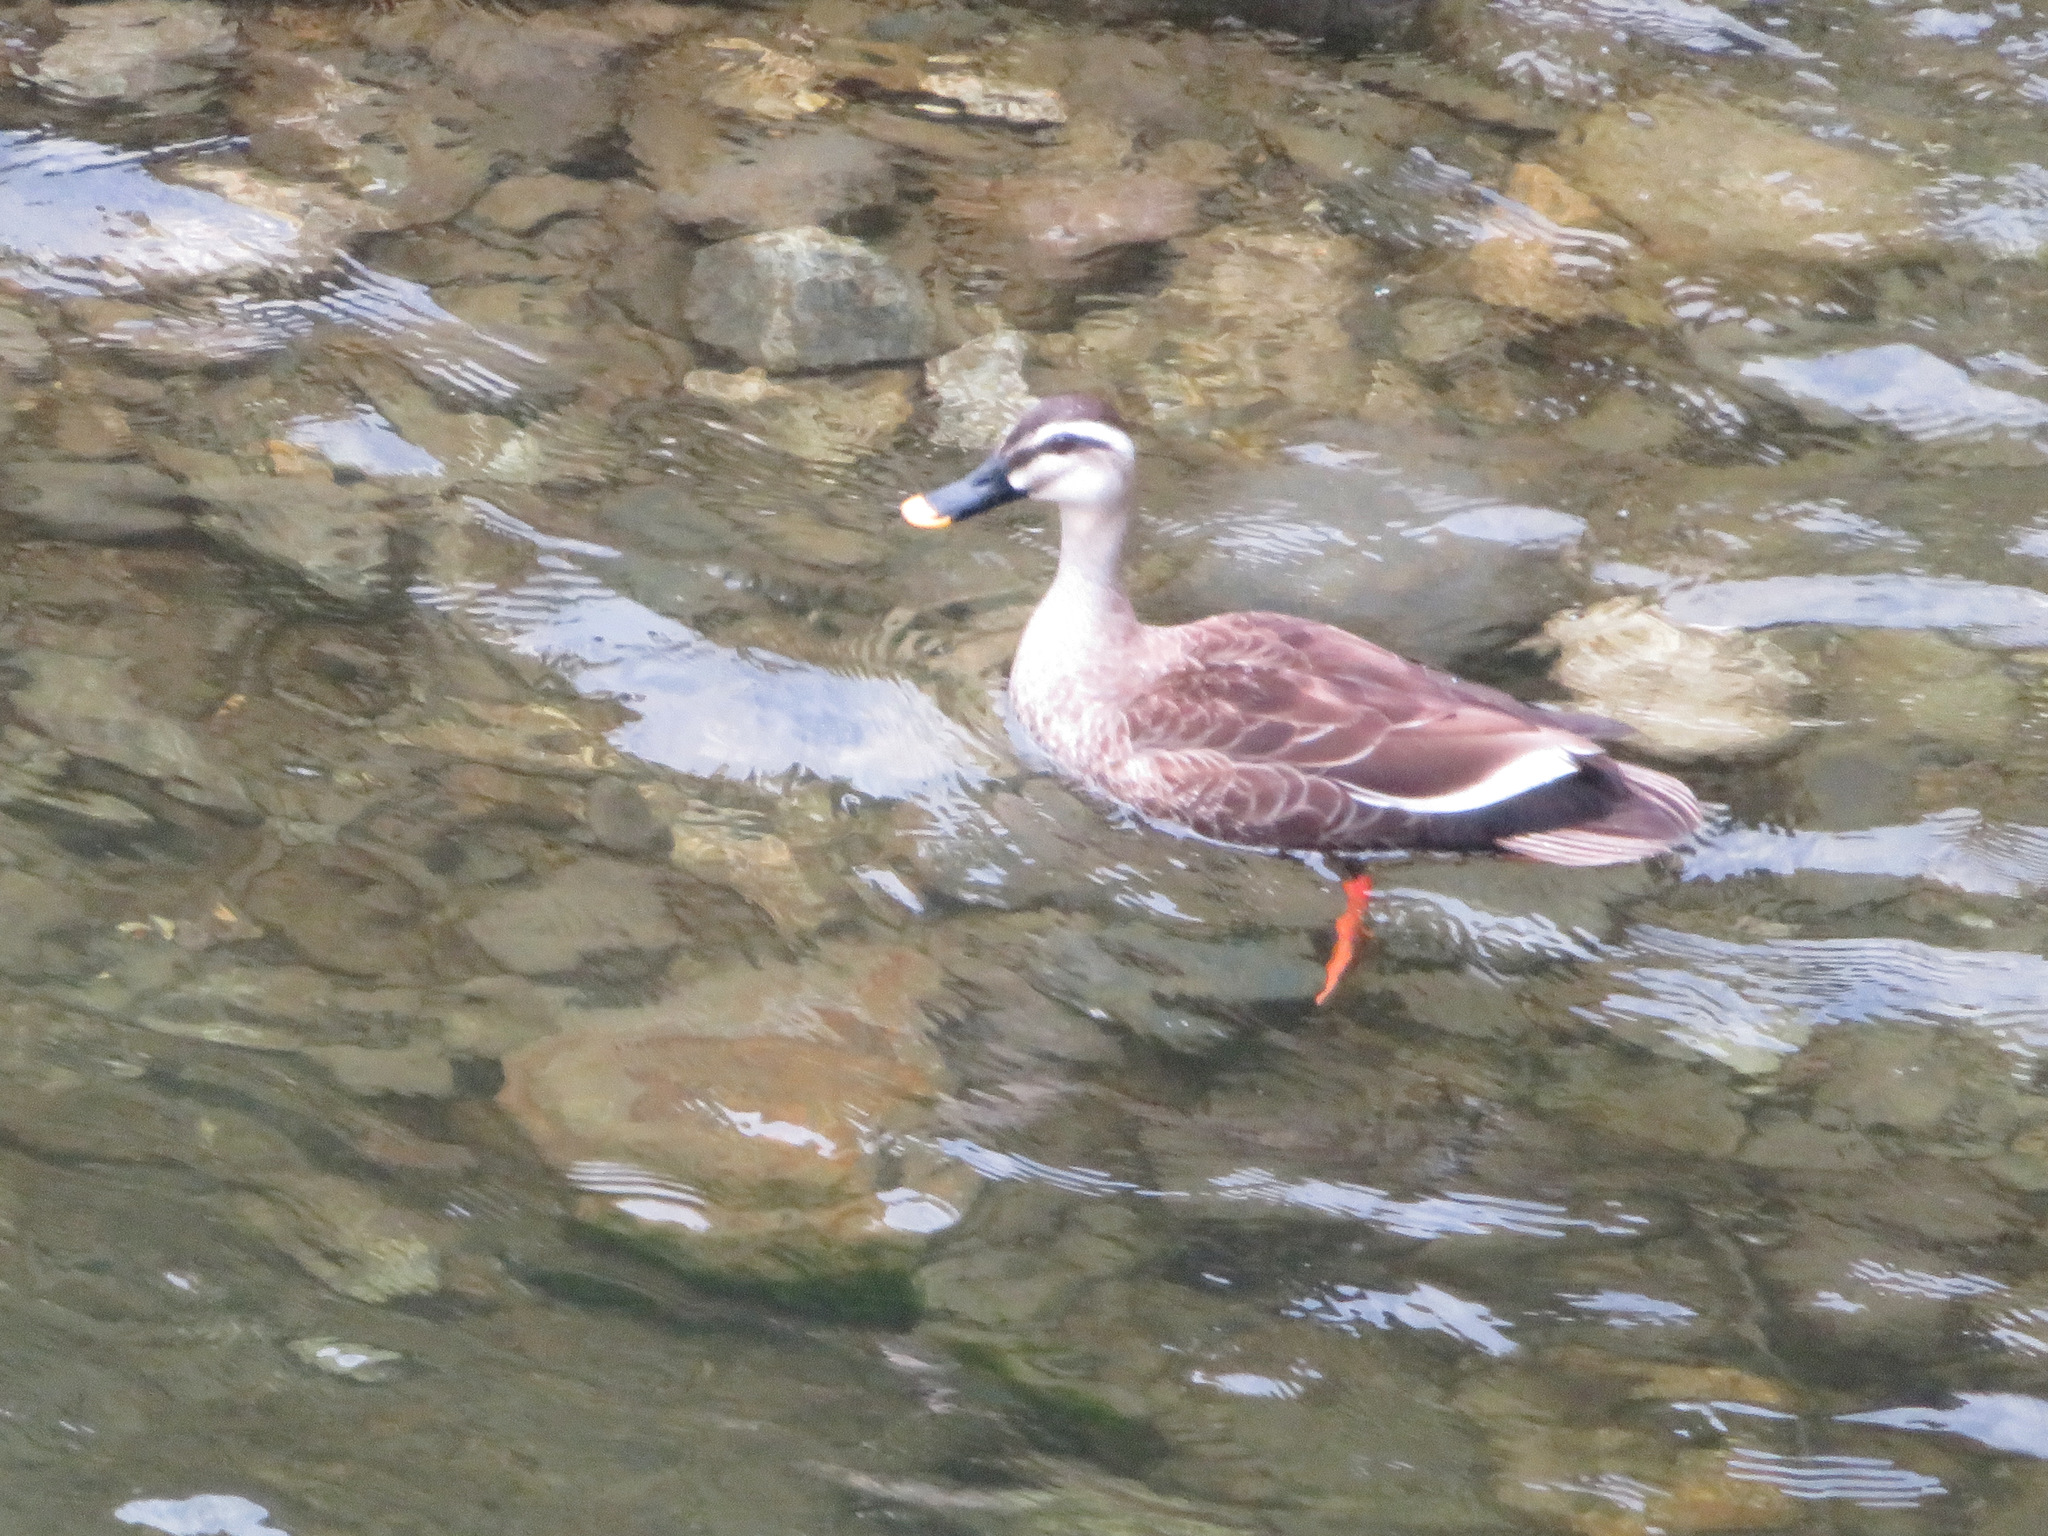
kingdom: Animalia
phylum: Chordata
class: Aves
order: Anseriformes
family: Anatidae
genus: Anas
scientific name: Anas zonorhyncha
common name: Eastern spot-billed duck
